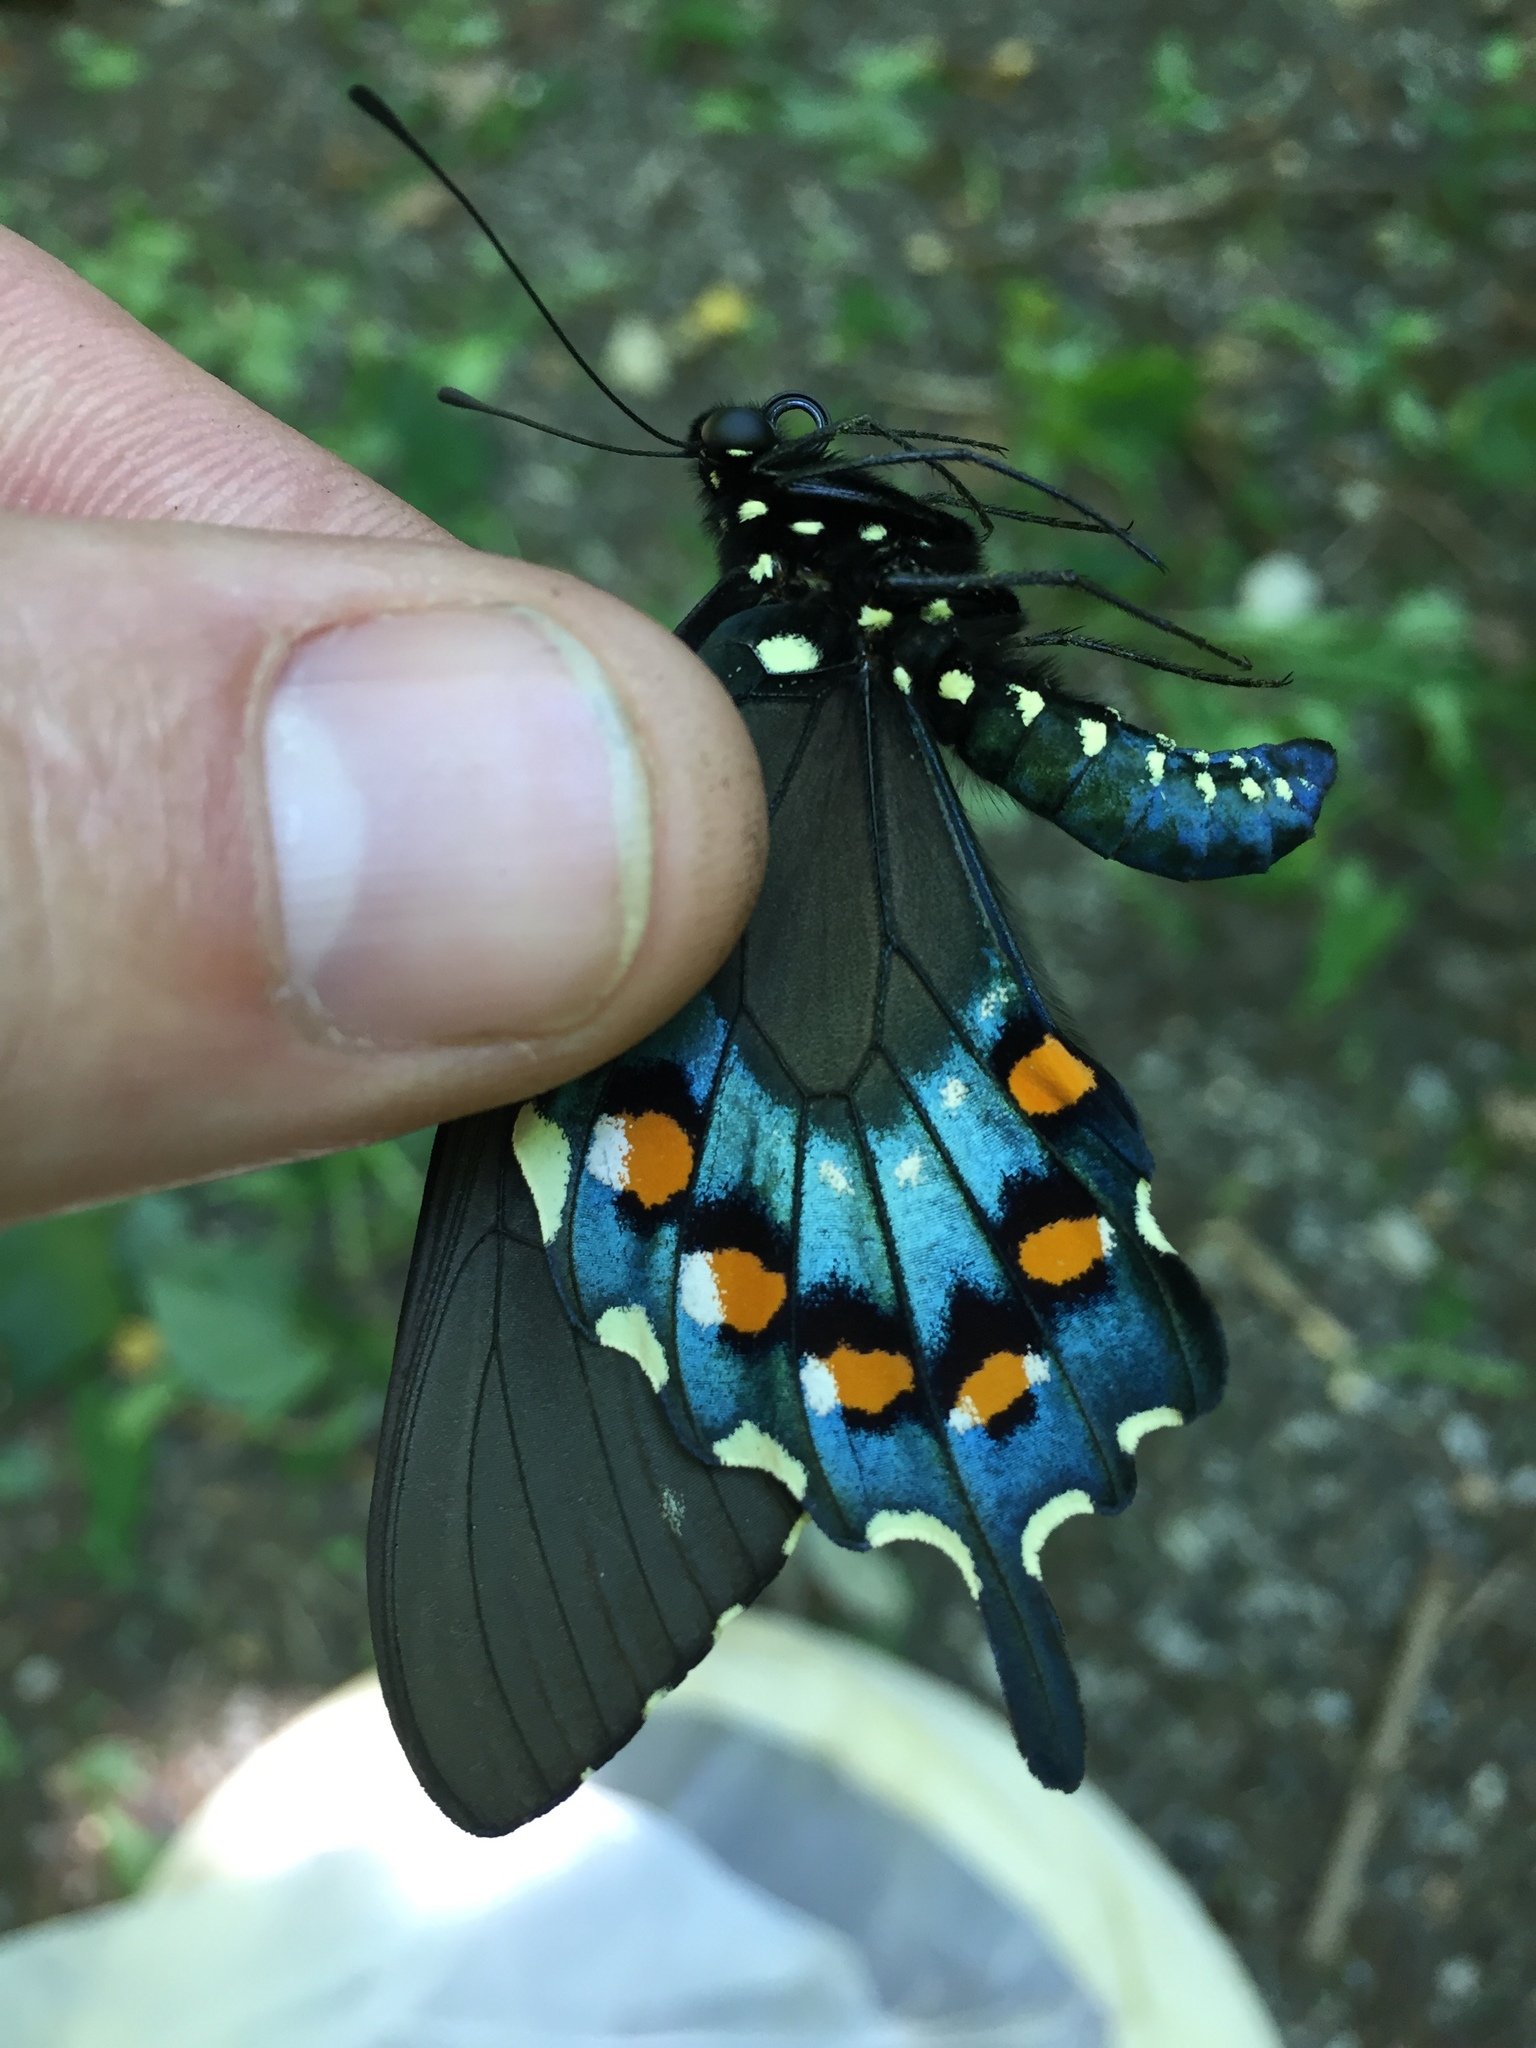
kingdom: Animalia
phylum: Arthropoda
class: Insecta
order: Lepidoptera
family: Papilionidae
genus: Battus
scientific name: Battus philenor
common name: Pipevine swallowtail
